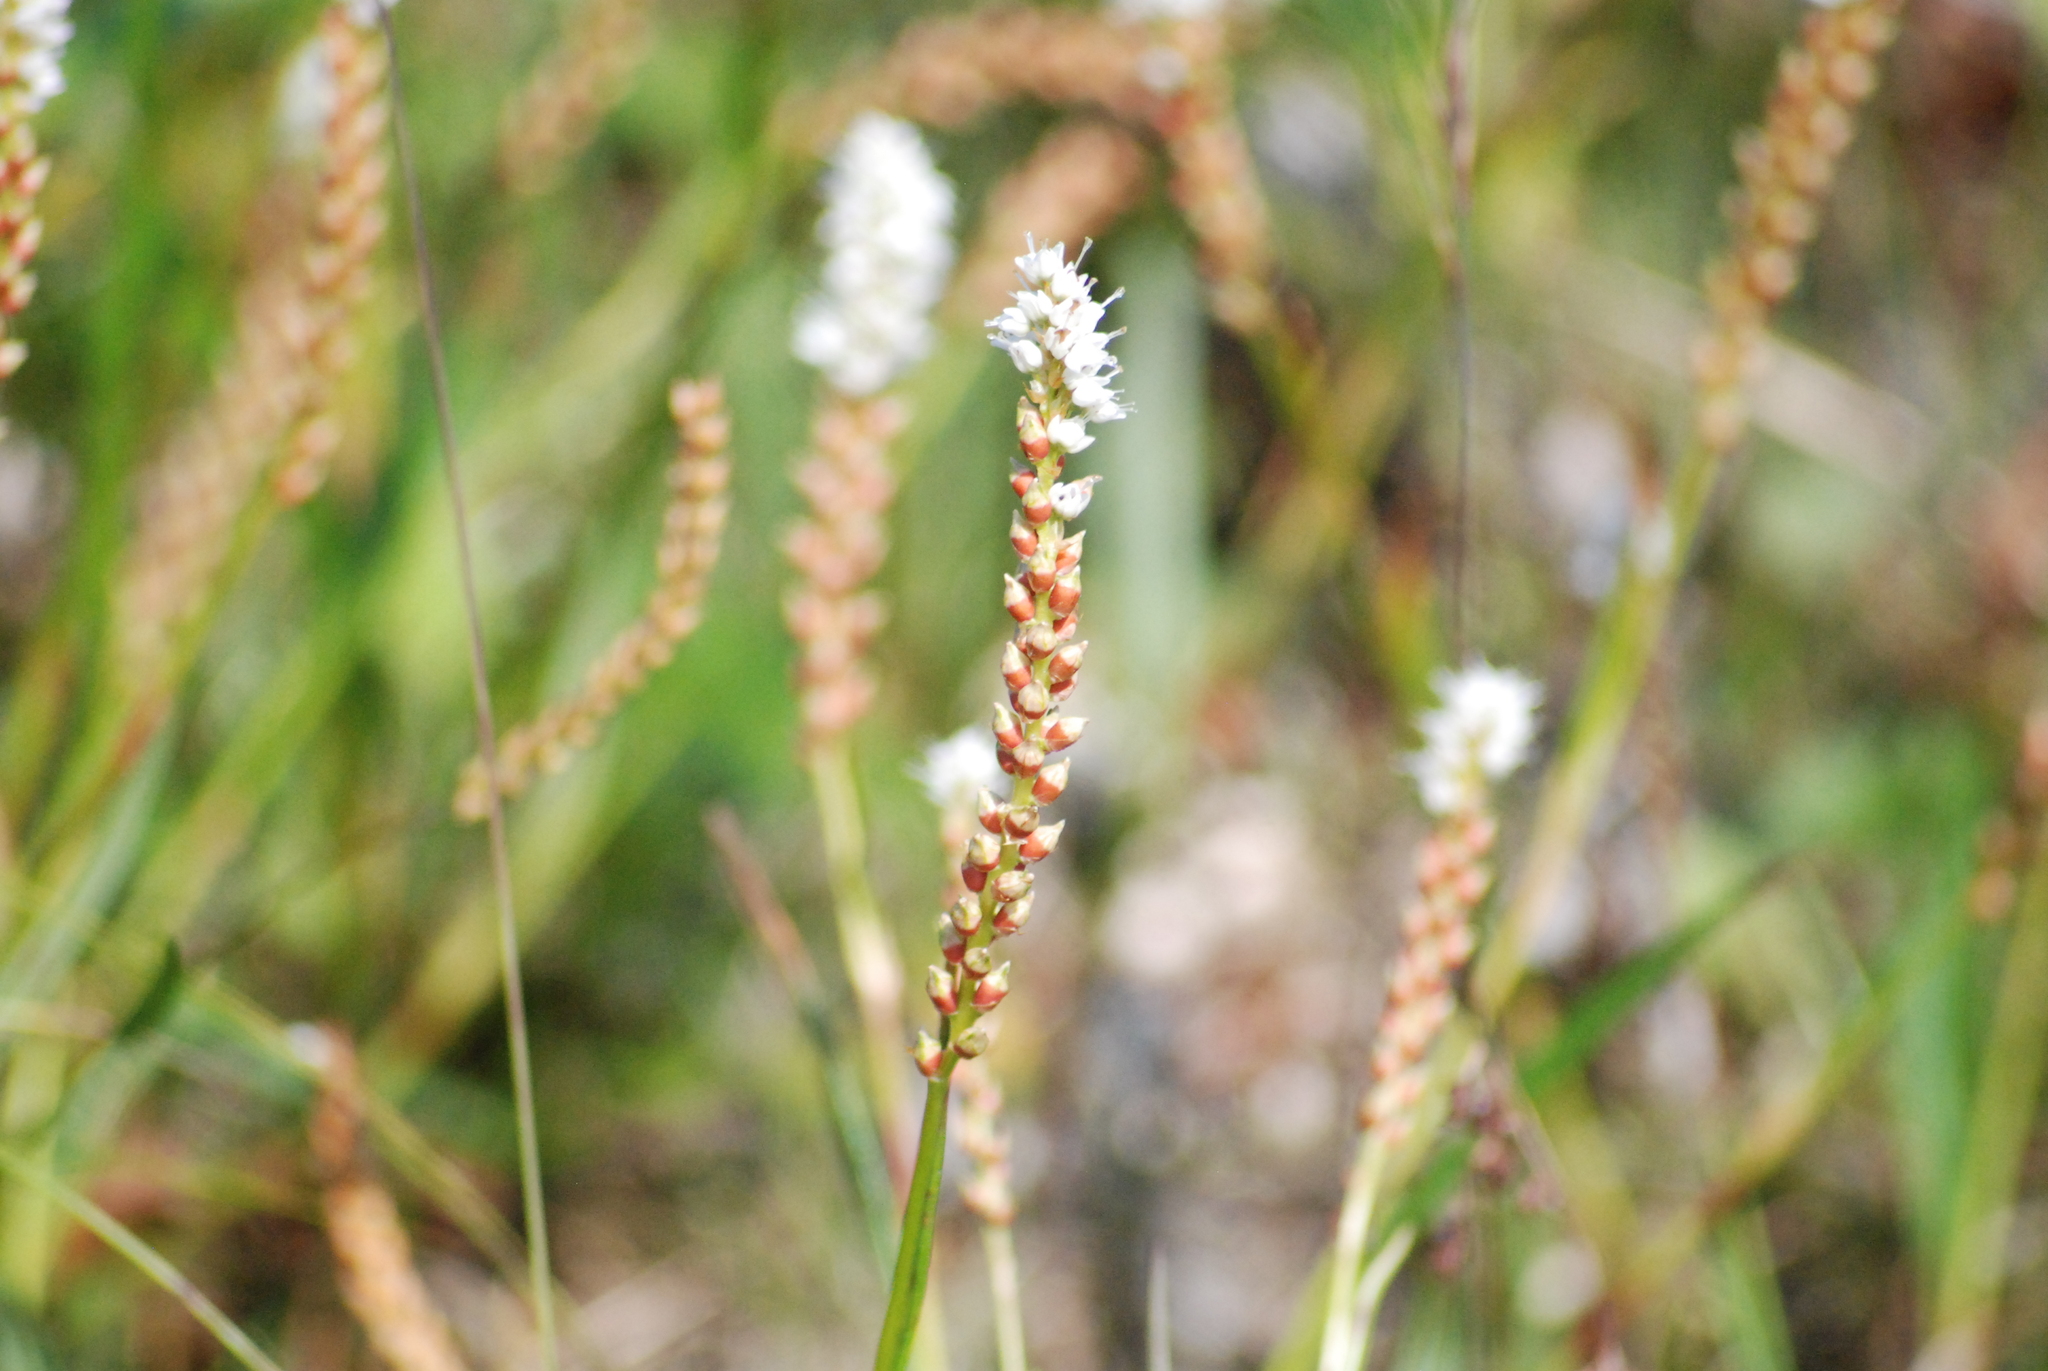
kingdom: Plantae
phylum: Tracheophyta
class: Magnoliopsida
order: Caryophyllales
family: Polygonaceae
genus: Bistorta
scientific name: Bistorta vivipara
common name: Alpine bistort
